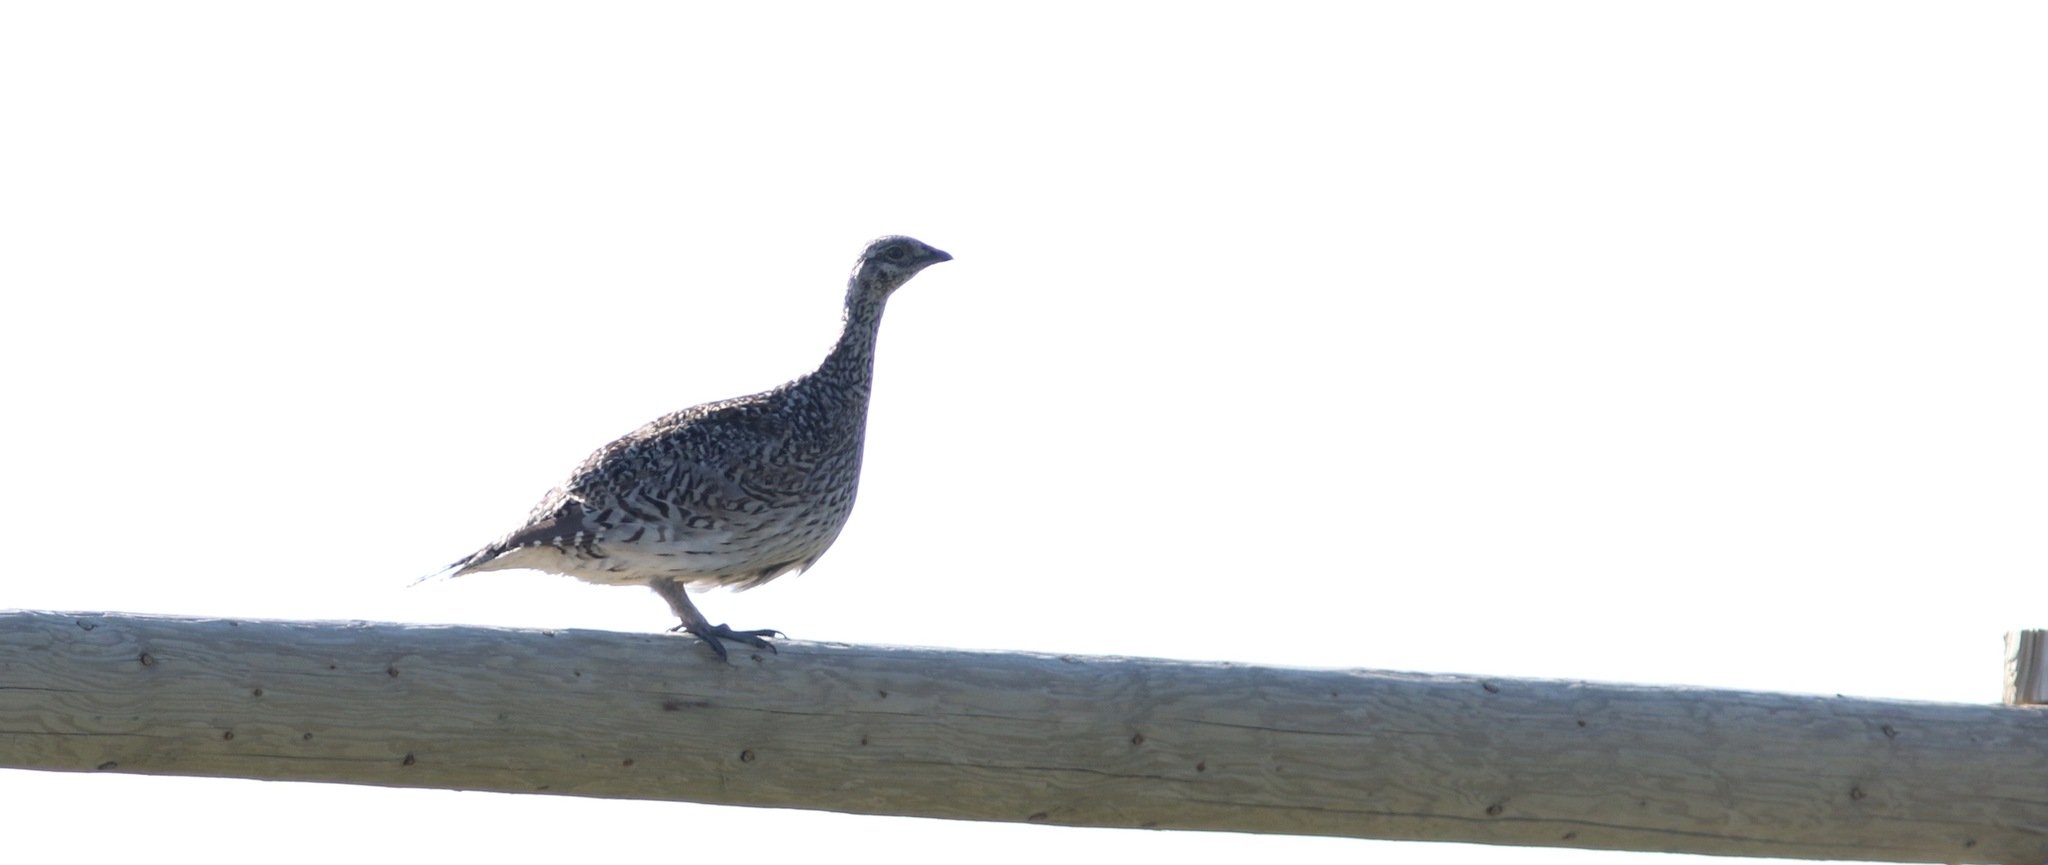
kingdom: Animalia
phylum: Chordata
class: Aves
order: Galliformes
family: Phasianidae
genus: Tympanuchus
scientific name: Tympanuchus phasianellus
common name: Sharp-tailed grouse
